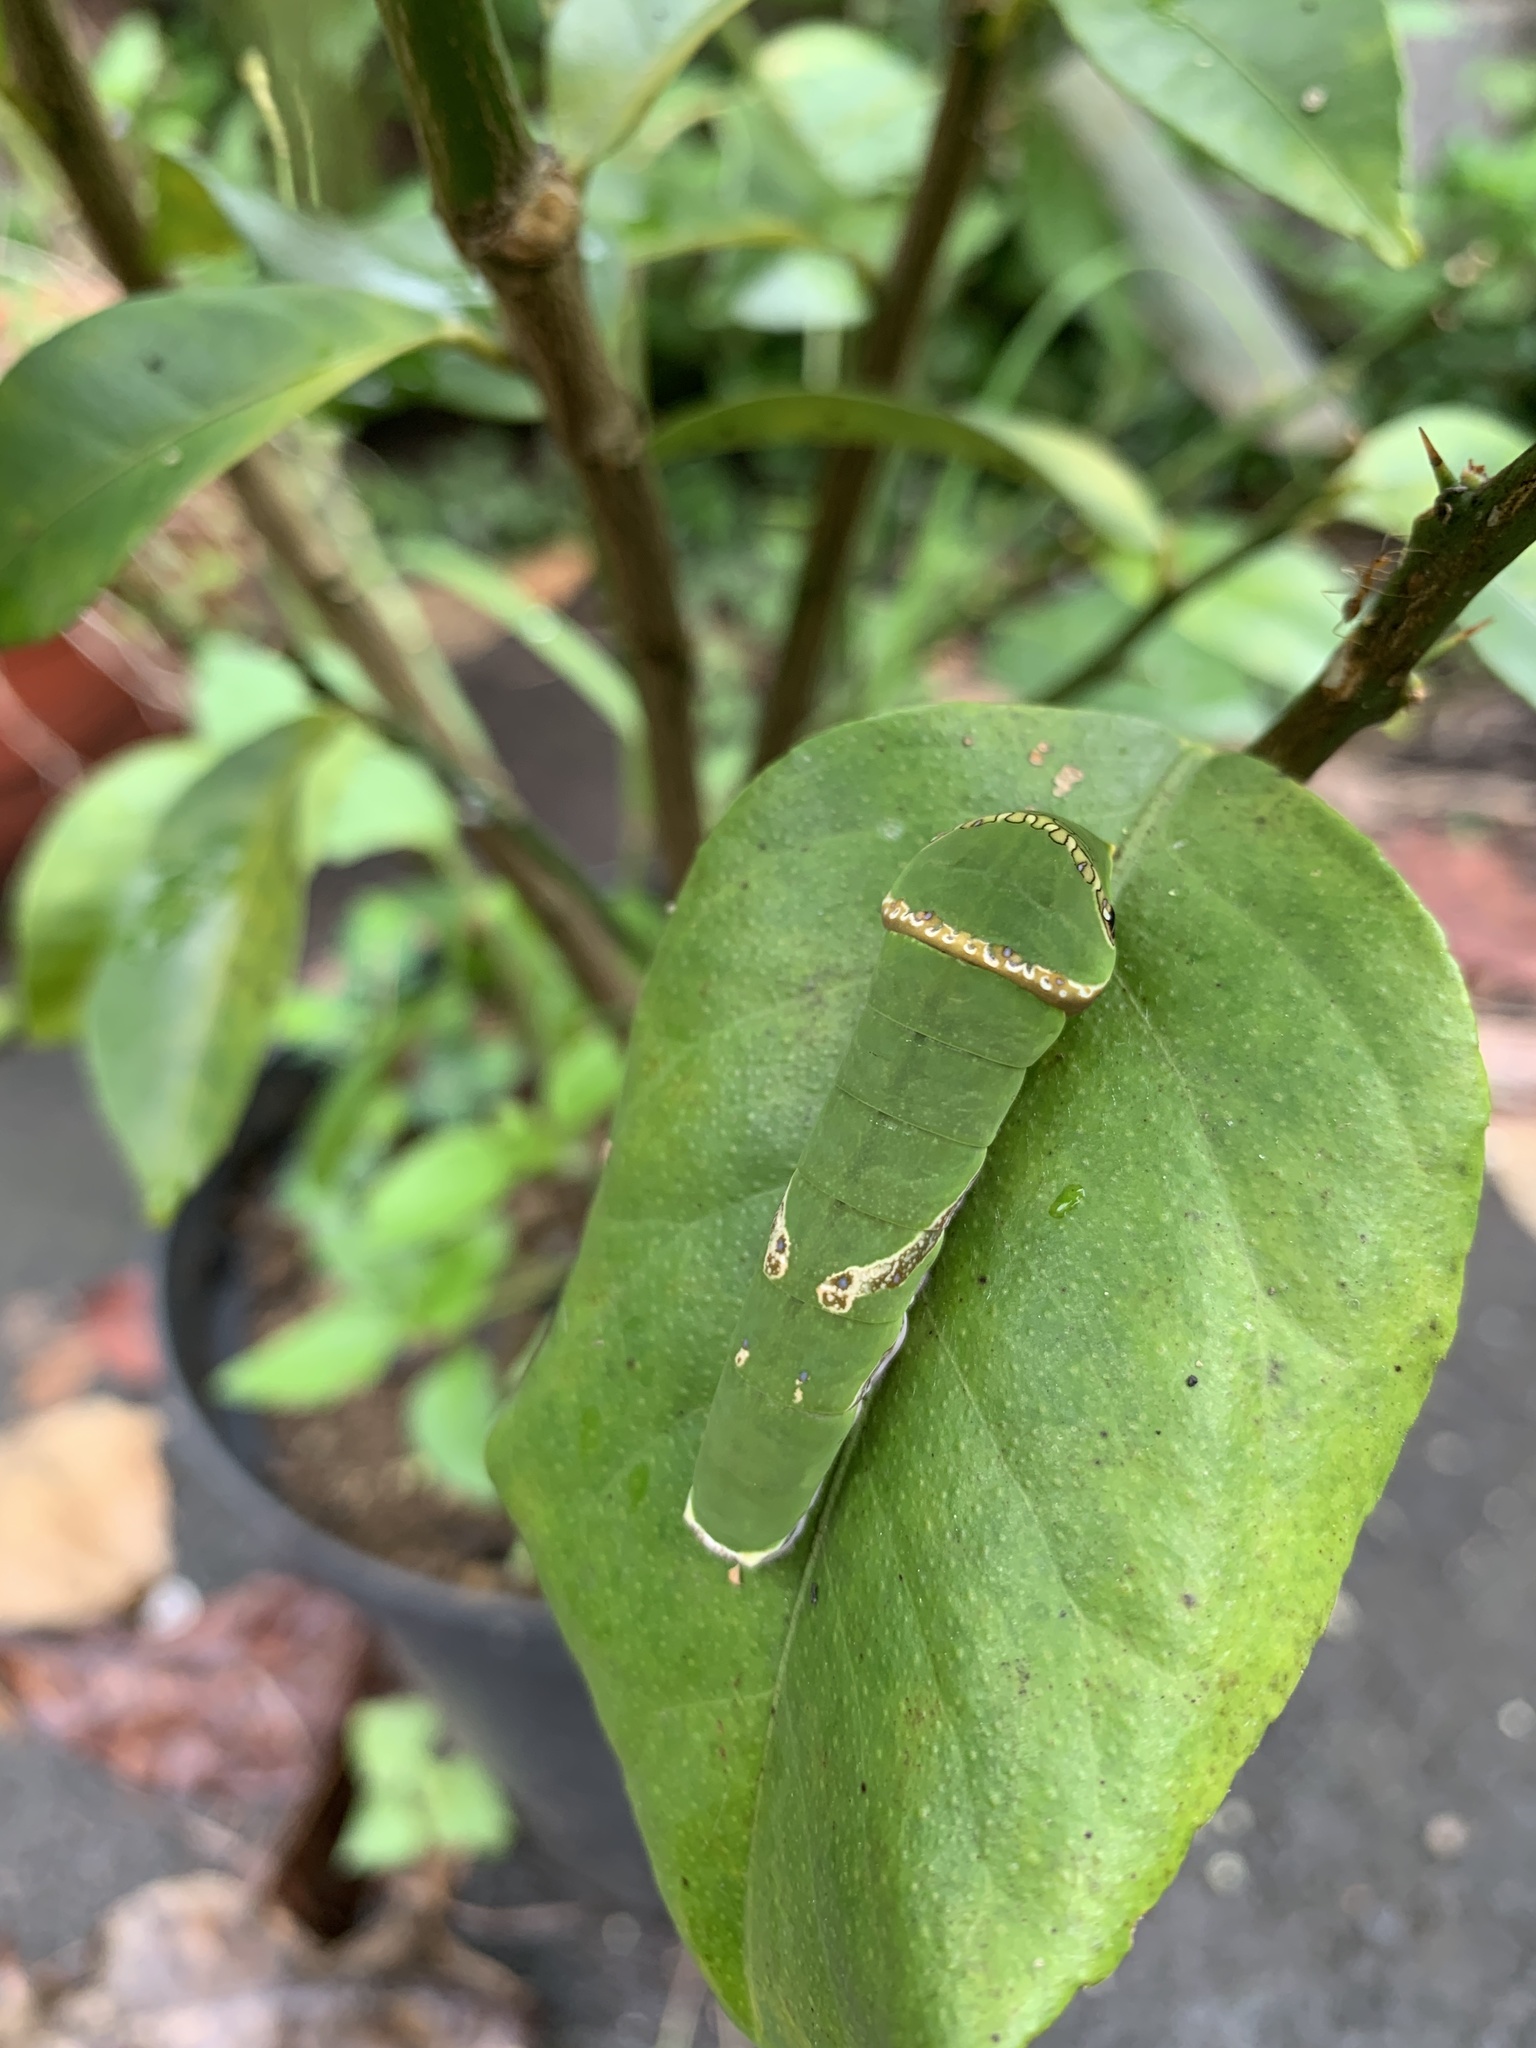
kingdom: Animalia
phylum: Arthropoda
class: Insecta
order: Lepidoptera
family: Papilionidae
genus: Papilio
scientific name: Papilio polytes
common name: Common mormon
